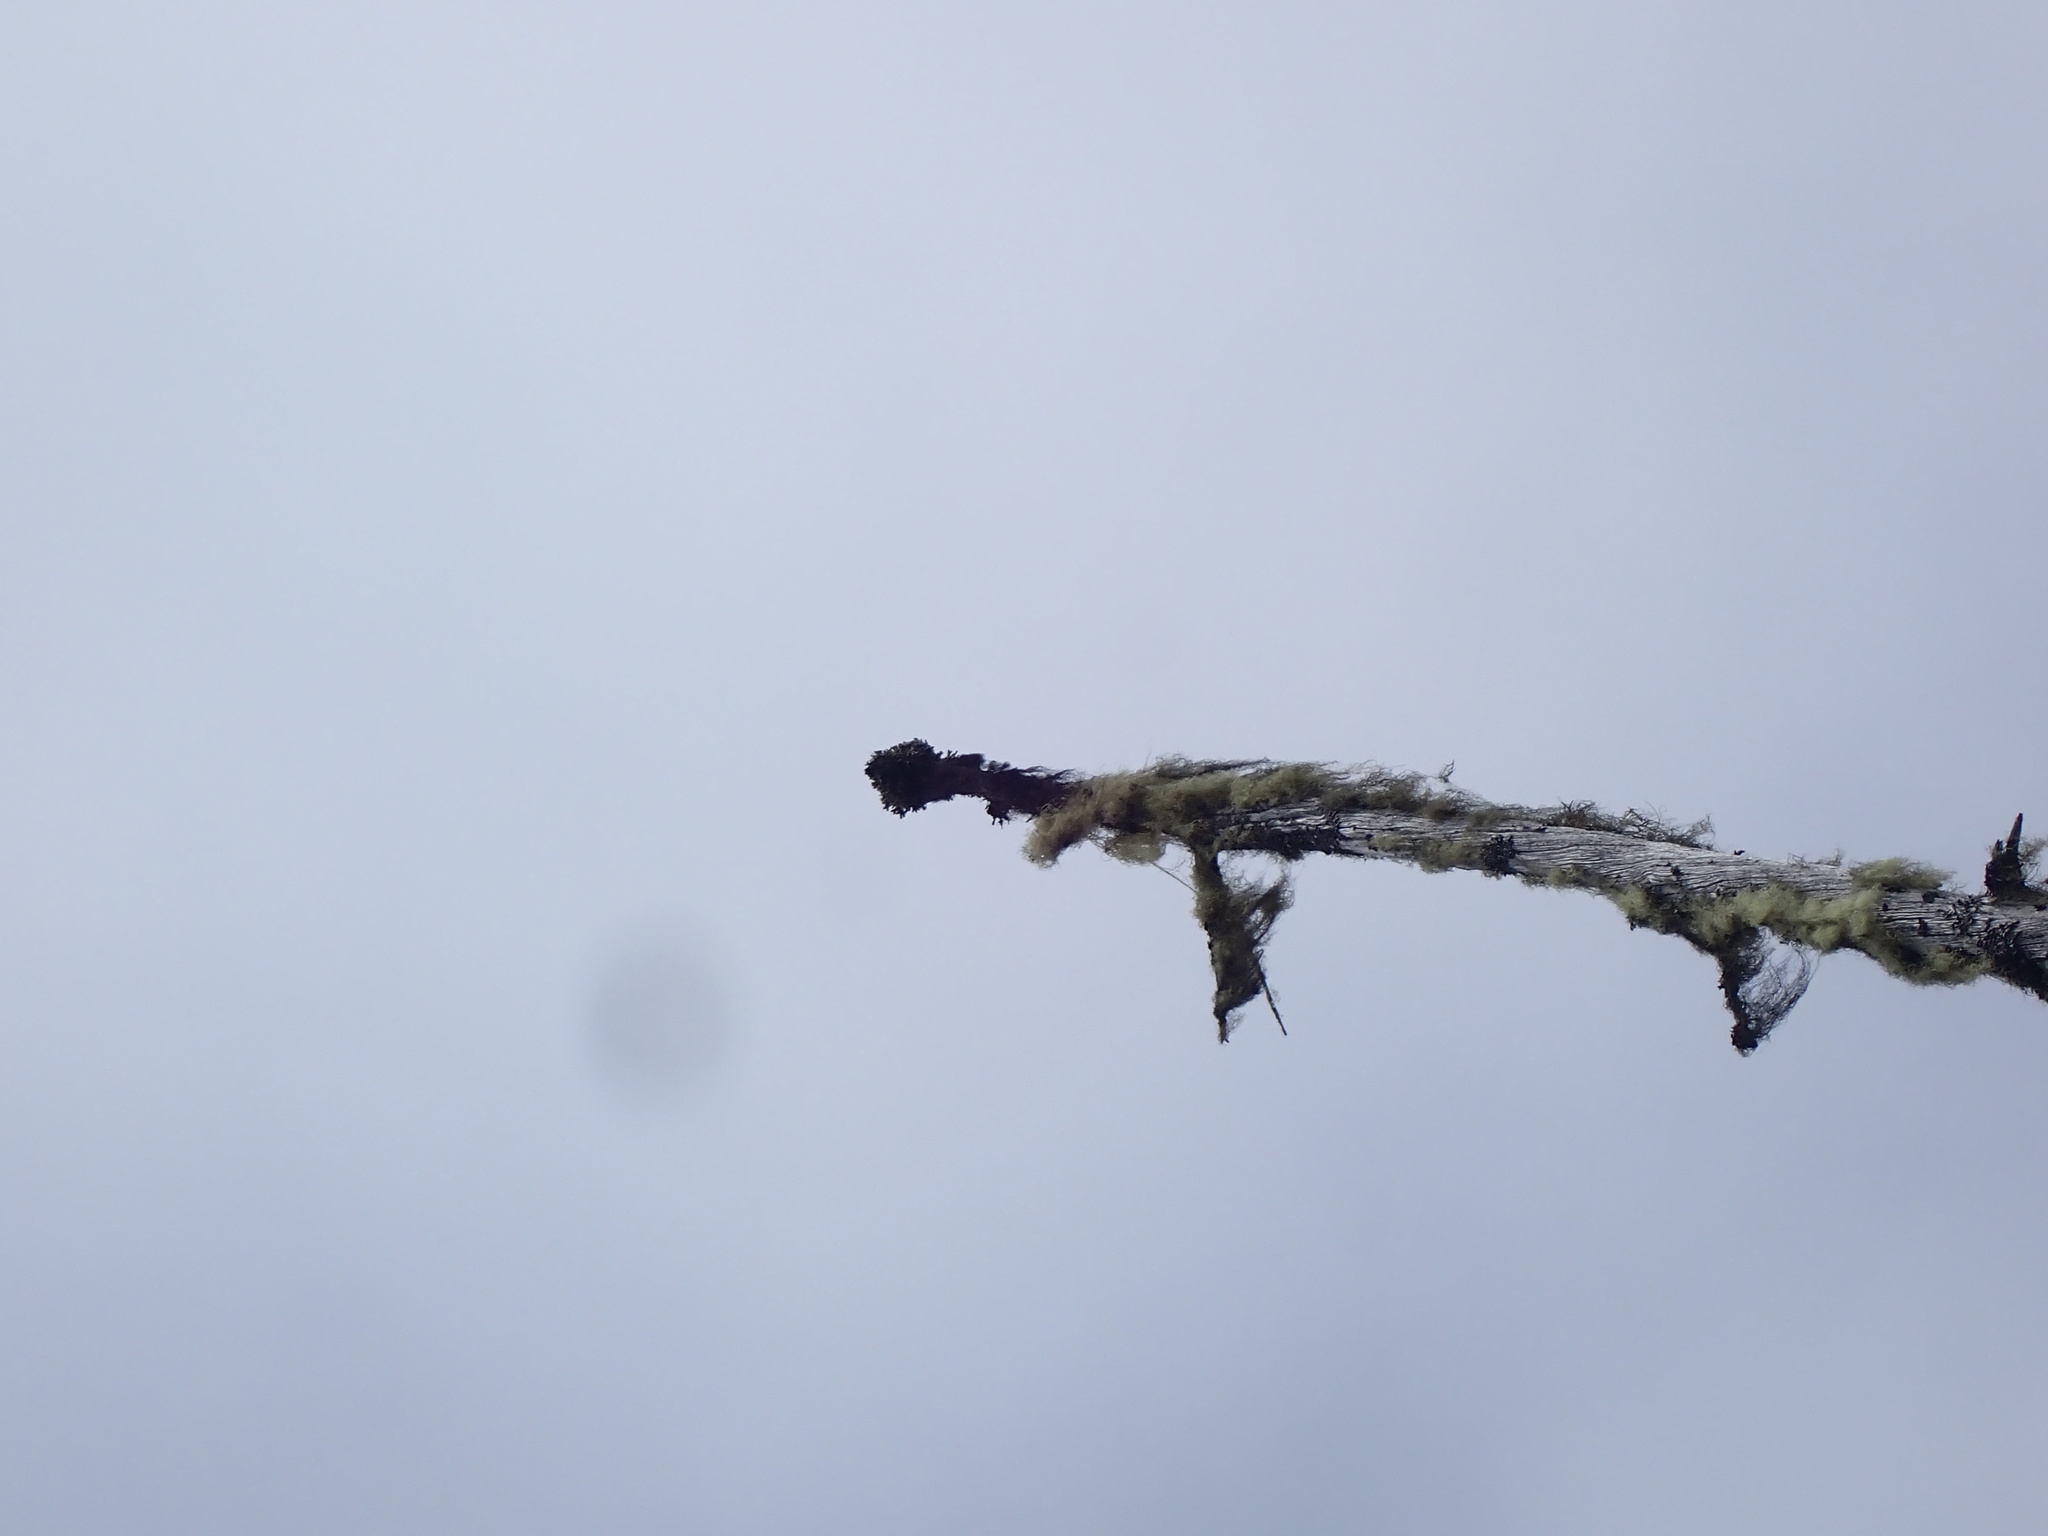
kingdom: Fungi
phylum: Ascomycota
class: Lecanoromycetes
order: Caliciales
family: Caliciaceae
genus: Acroscyphus
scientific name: Acroscyphus sphaerophoroides
